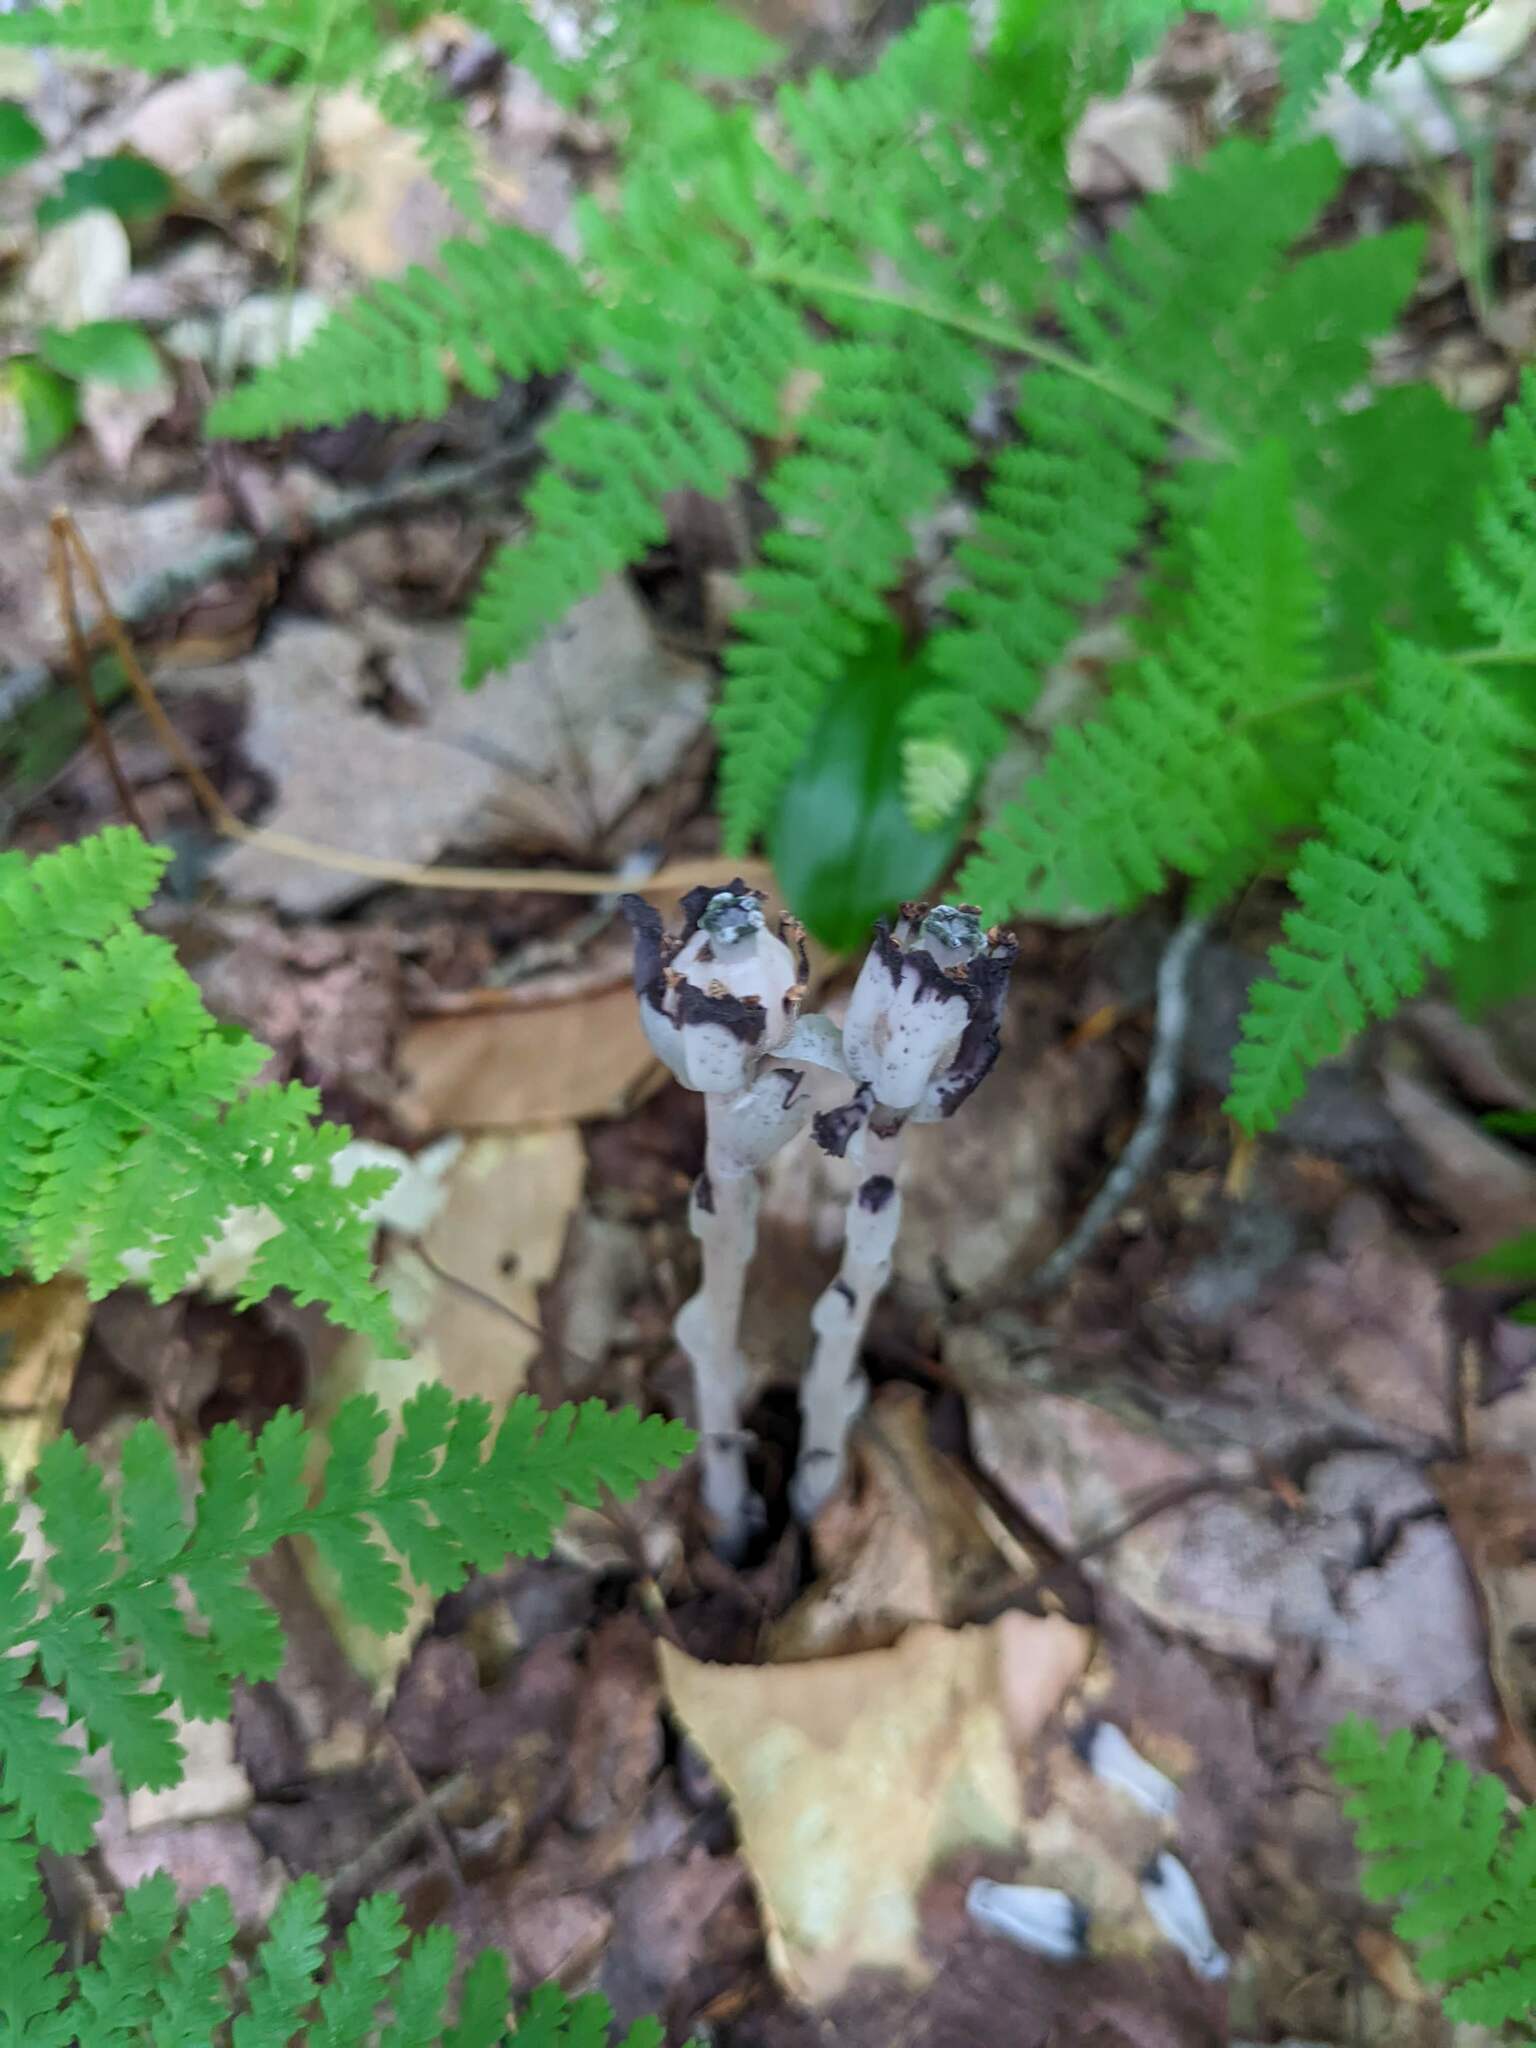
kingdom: Plantae
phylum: Tracheophyta
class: Magnoliopsida
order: Ericales
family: Ericaceae
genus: Monotropa
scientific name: Monotropa uniflora
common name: Convulsion root
